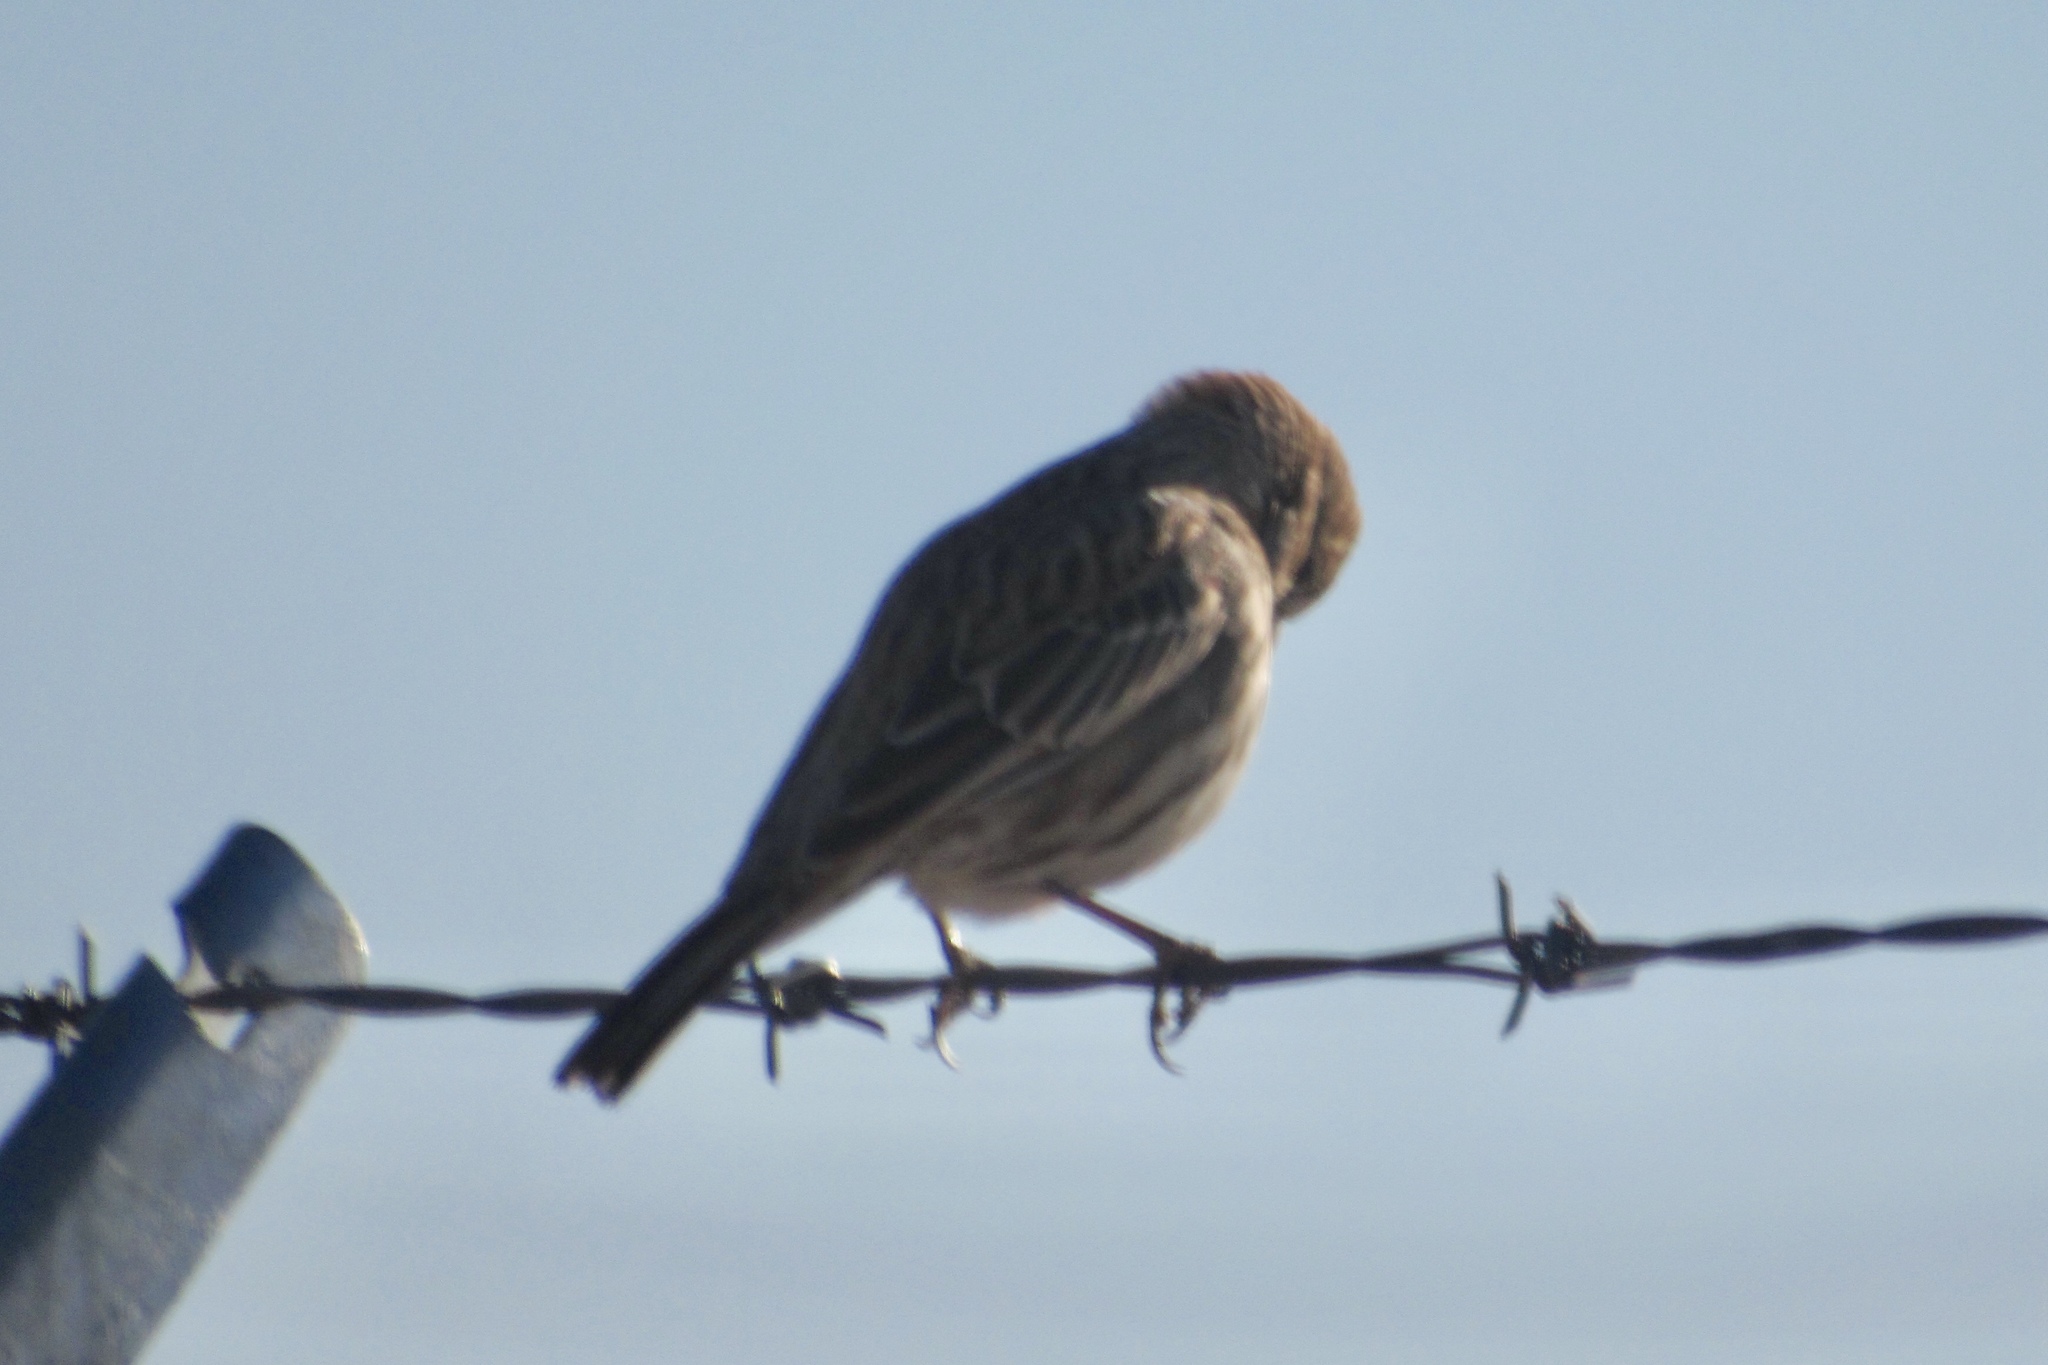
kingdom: Animalia
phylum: Chordata
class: Aves
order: Passeriformes
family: Passerellidae
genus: Calamospiza
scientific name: Calamospiza melanocorys
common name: Lark bunting
